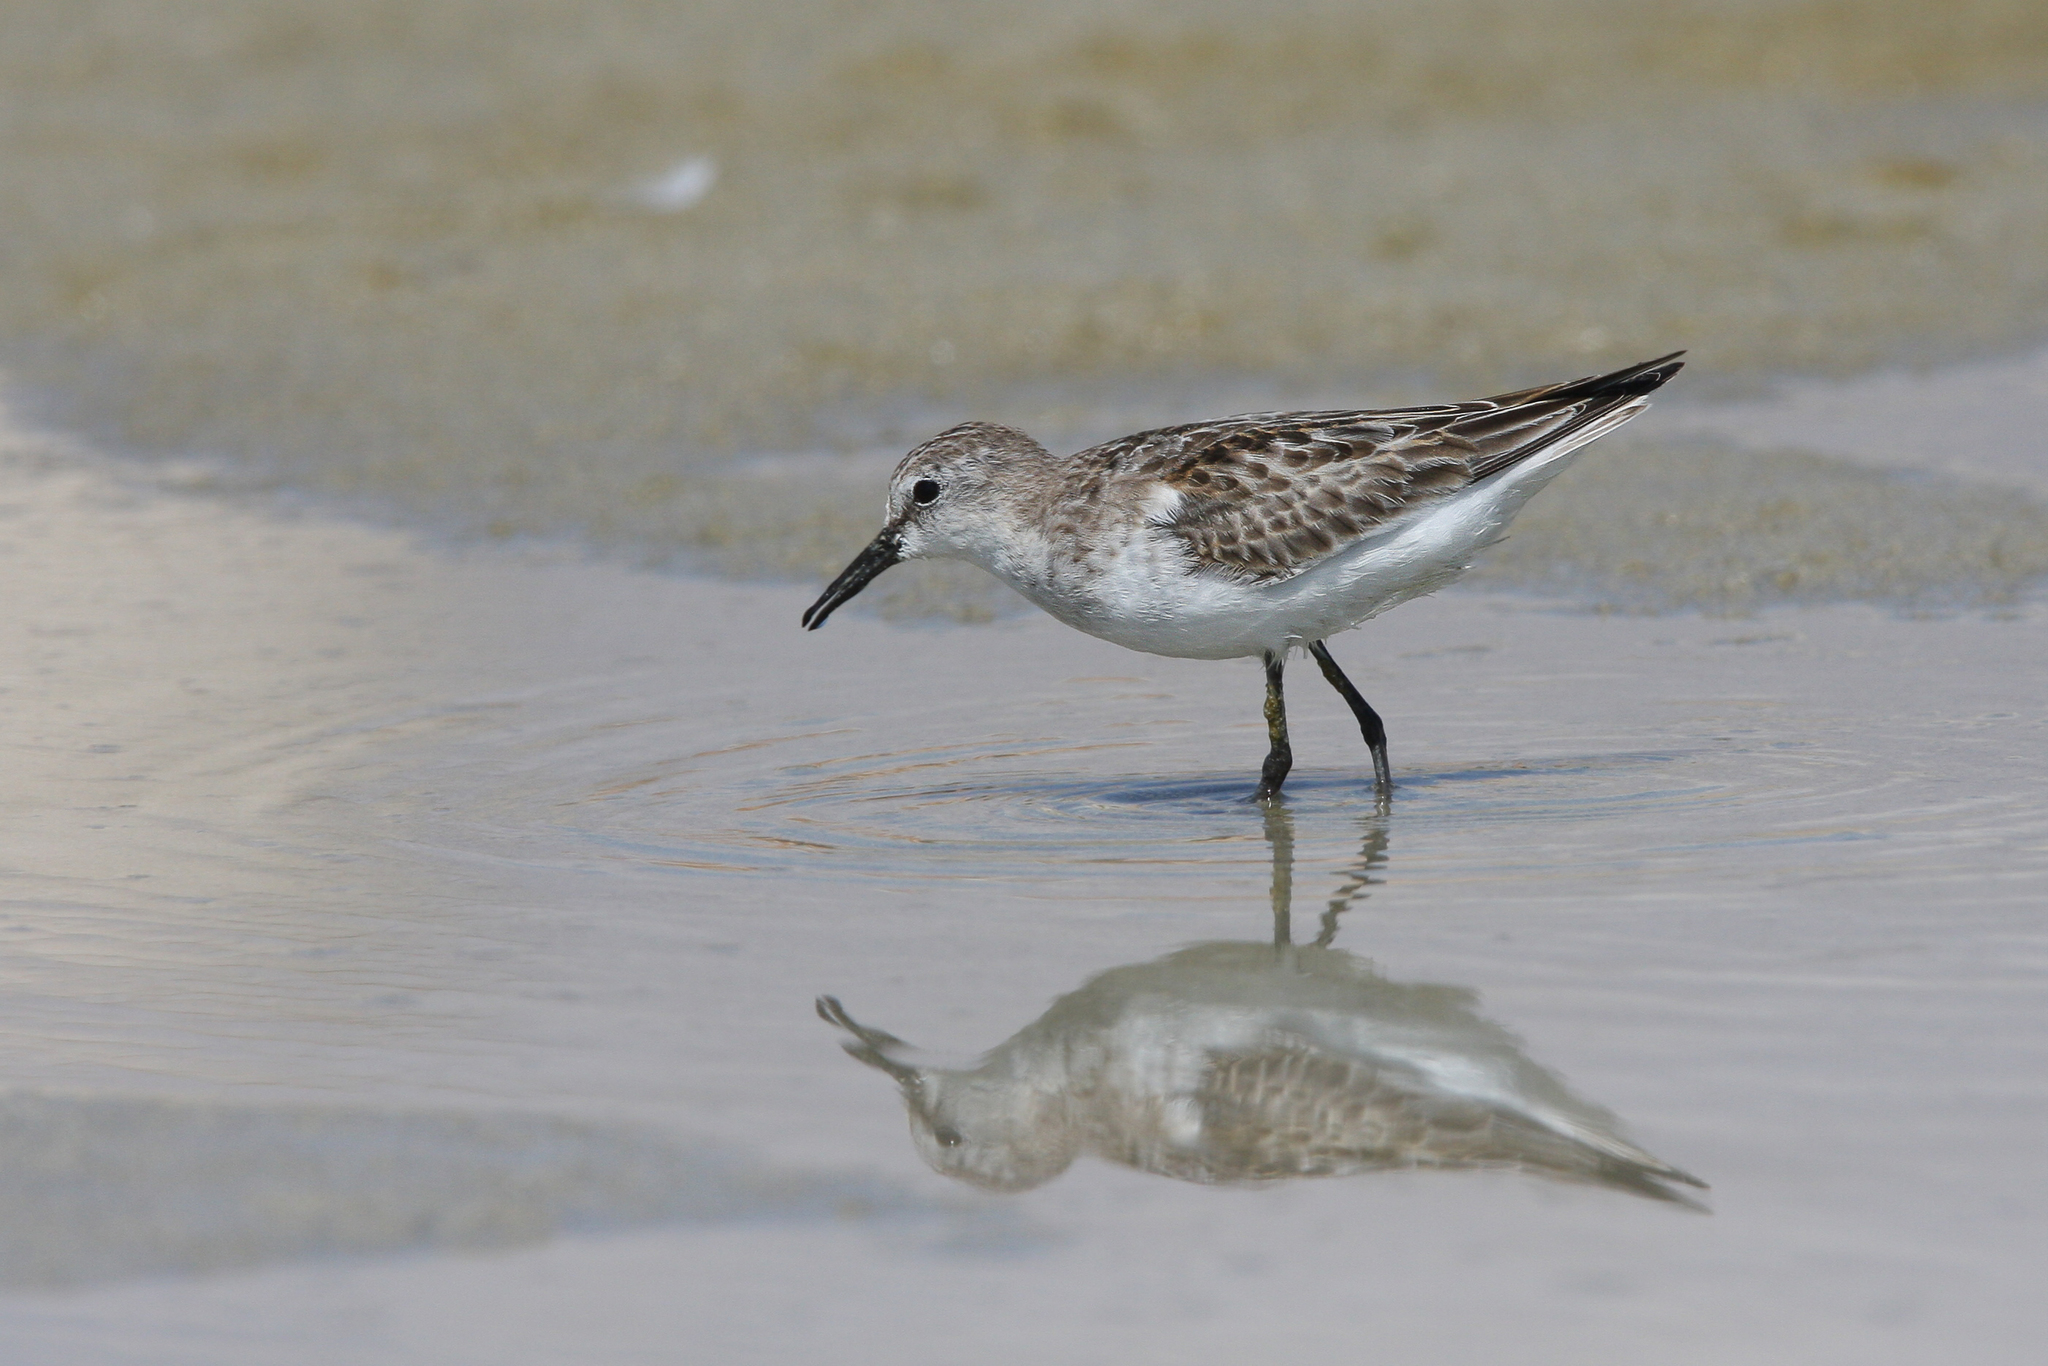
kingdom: Animalia
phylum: Chordata
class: Aves
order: Charadriiformes
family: Scolopacidae
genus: Calidris
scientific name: Calidris minuta
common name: Little stint
